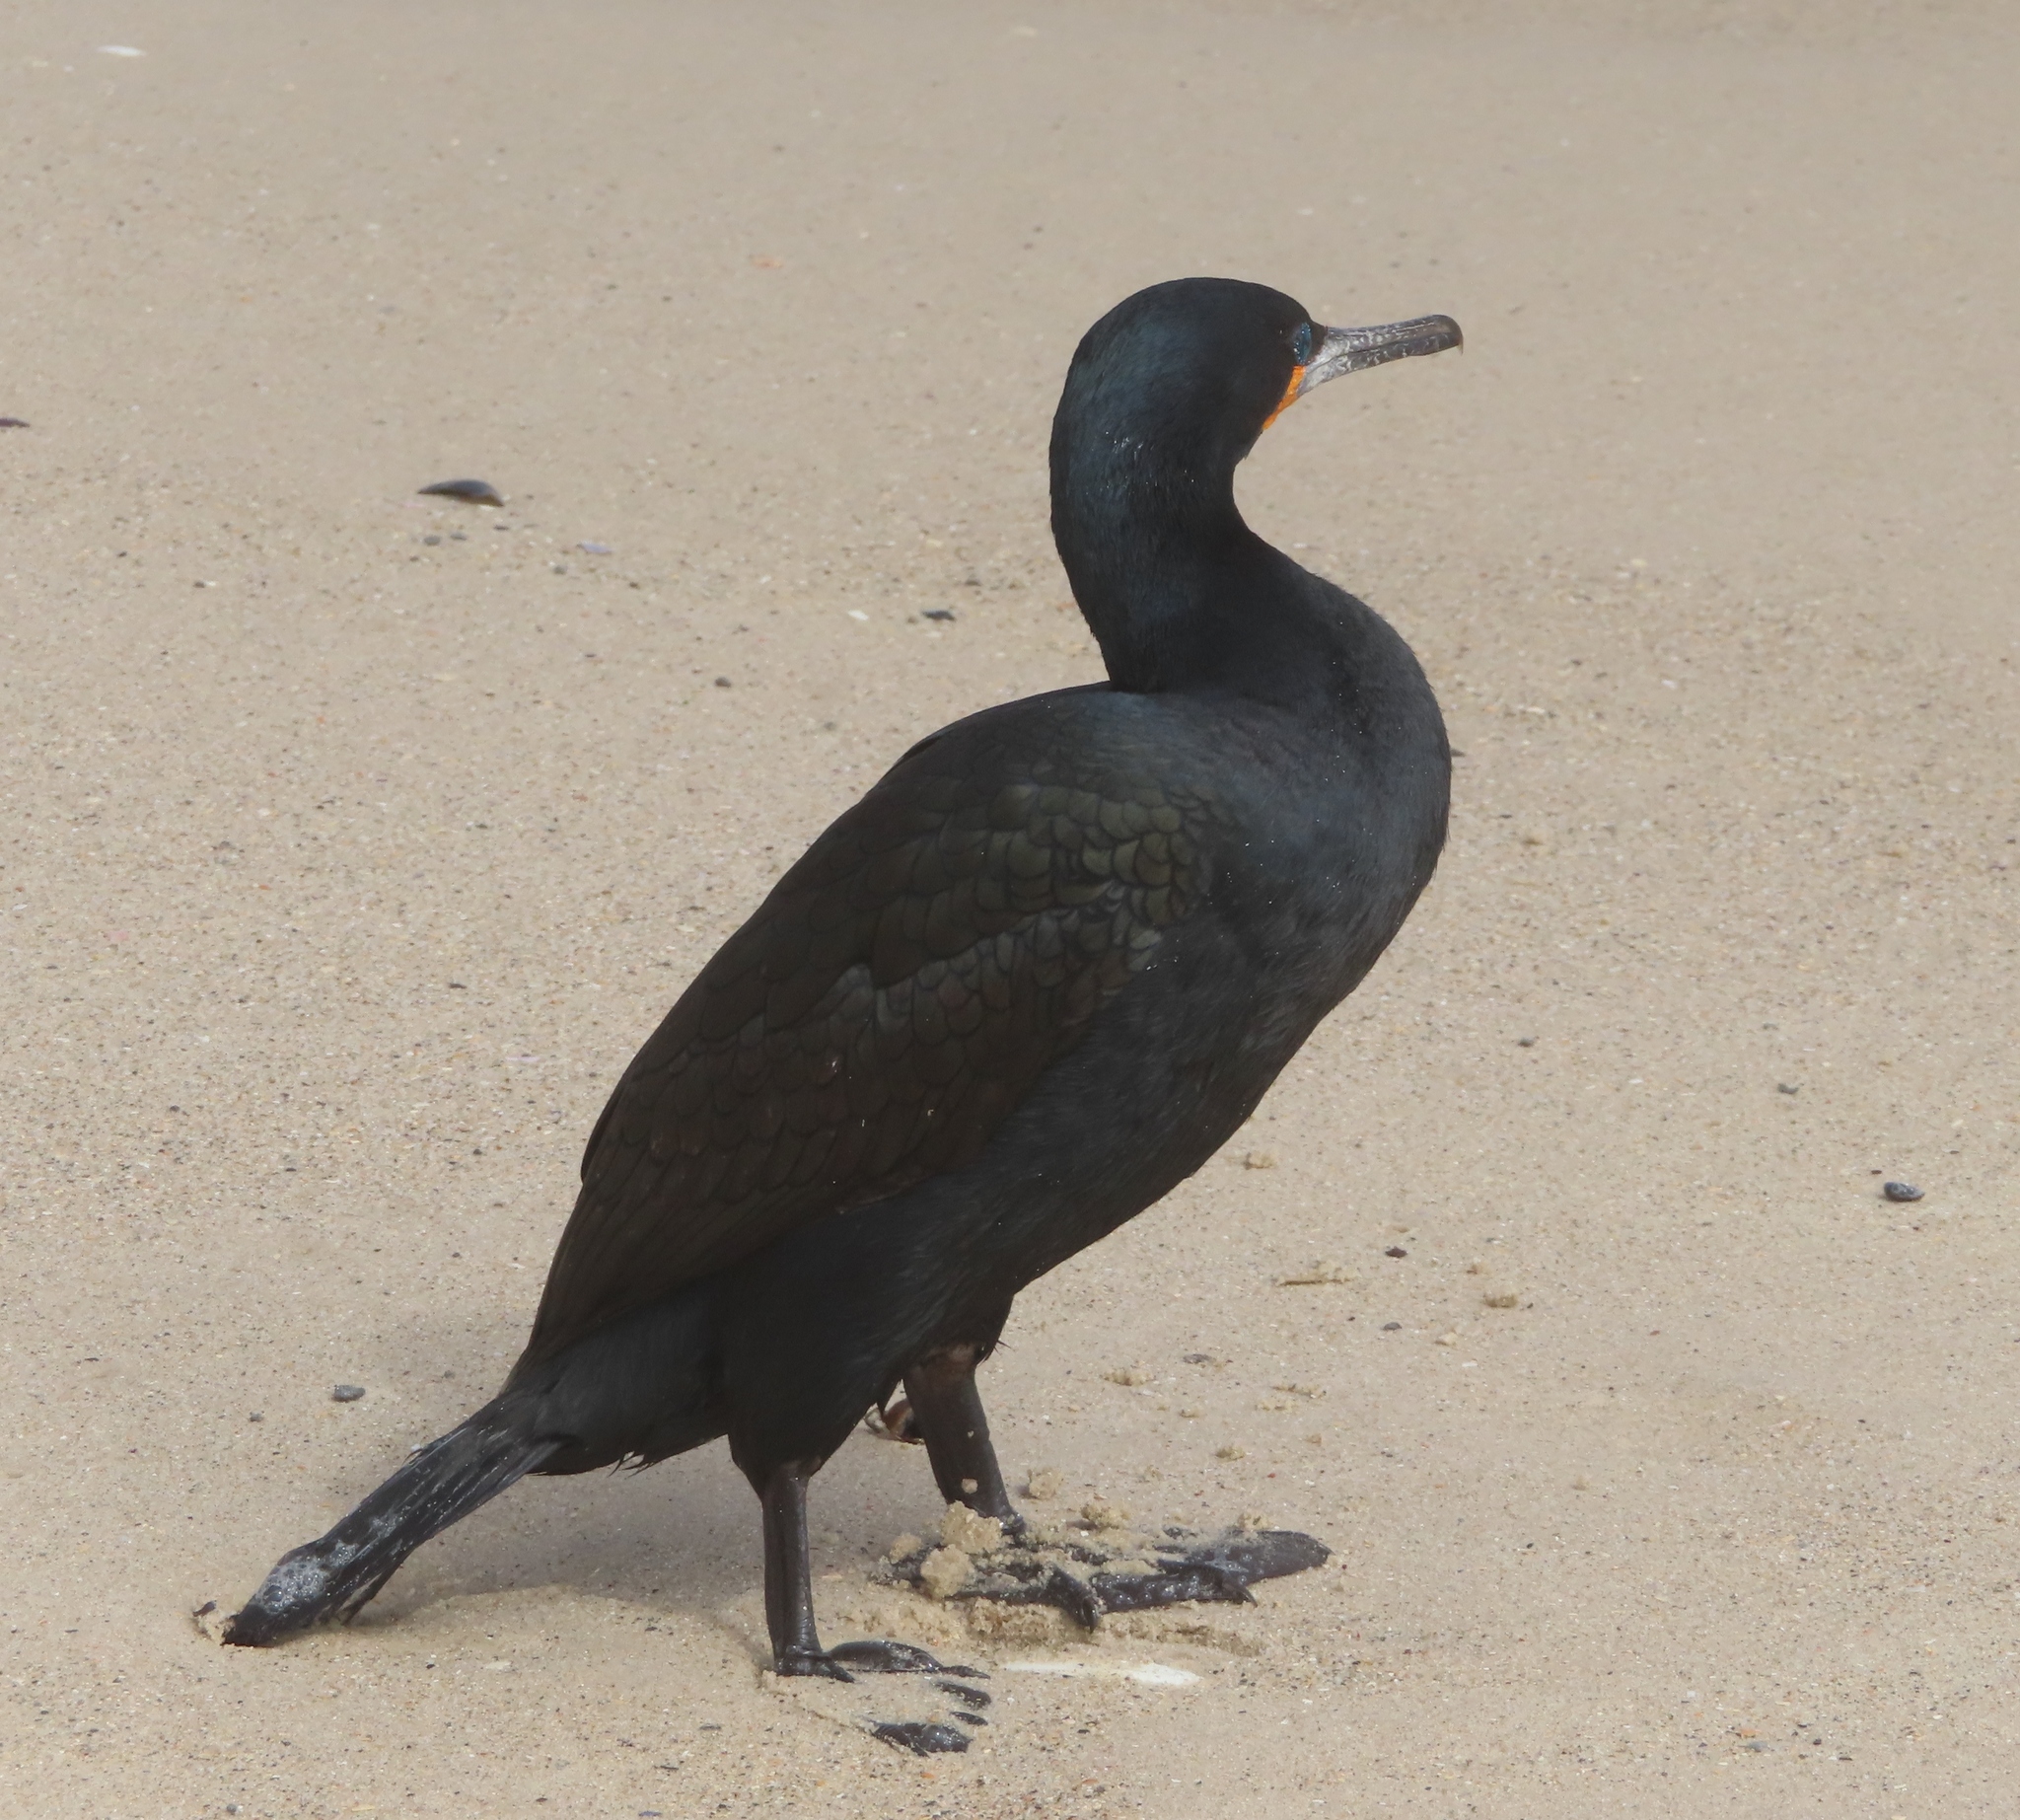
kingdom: Animalia
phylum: Chordata
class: Aves
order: Suliformes
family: Phalacrocoracidae
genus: Phalacrocorax
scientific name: Phalacrocorax capensis
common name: Cape cormorant
